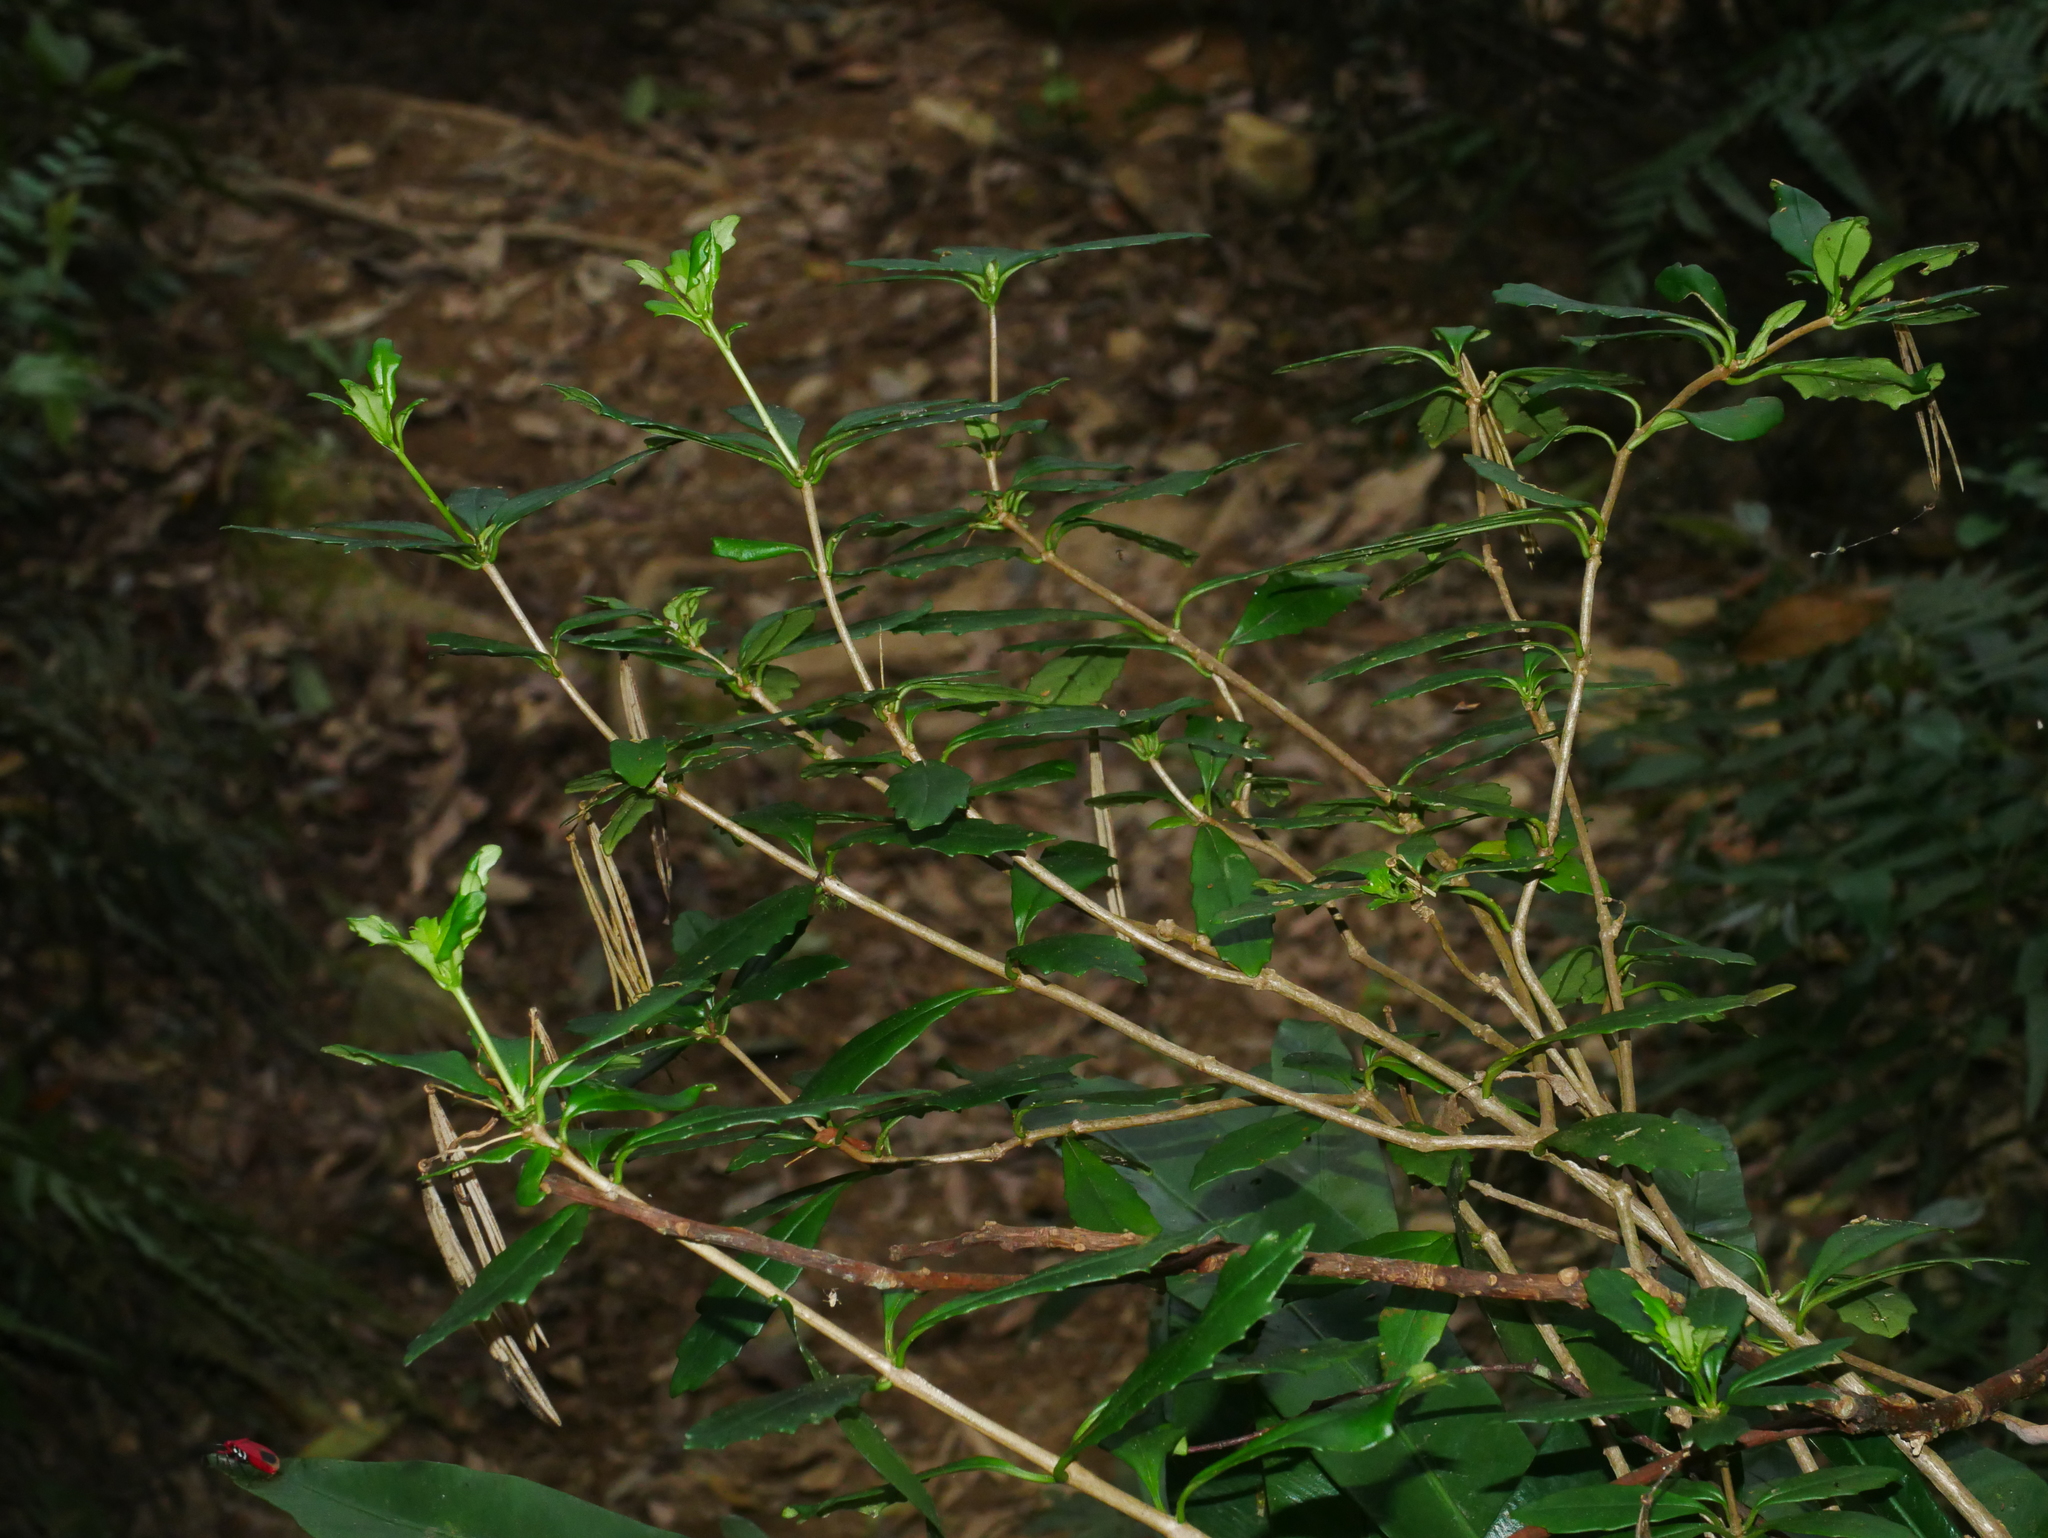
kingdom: Plantae
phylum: Tracheophyta
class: Magnoliopsida
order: Lamiales
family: Gesneriaceae
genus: Lysionotus
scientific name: Lysionotus pauciflorus
